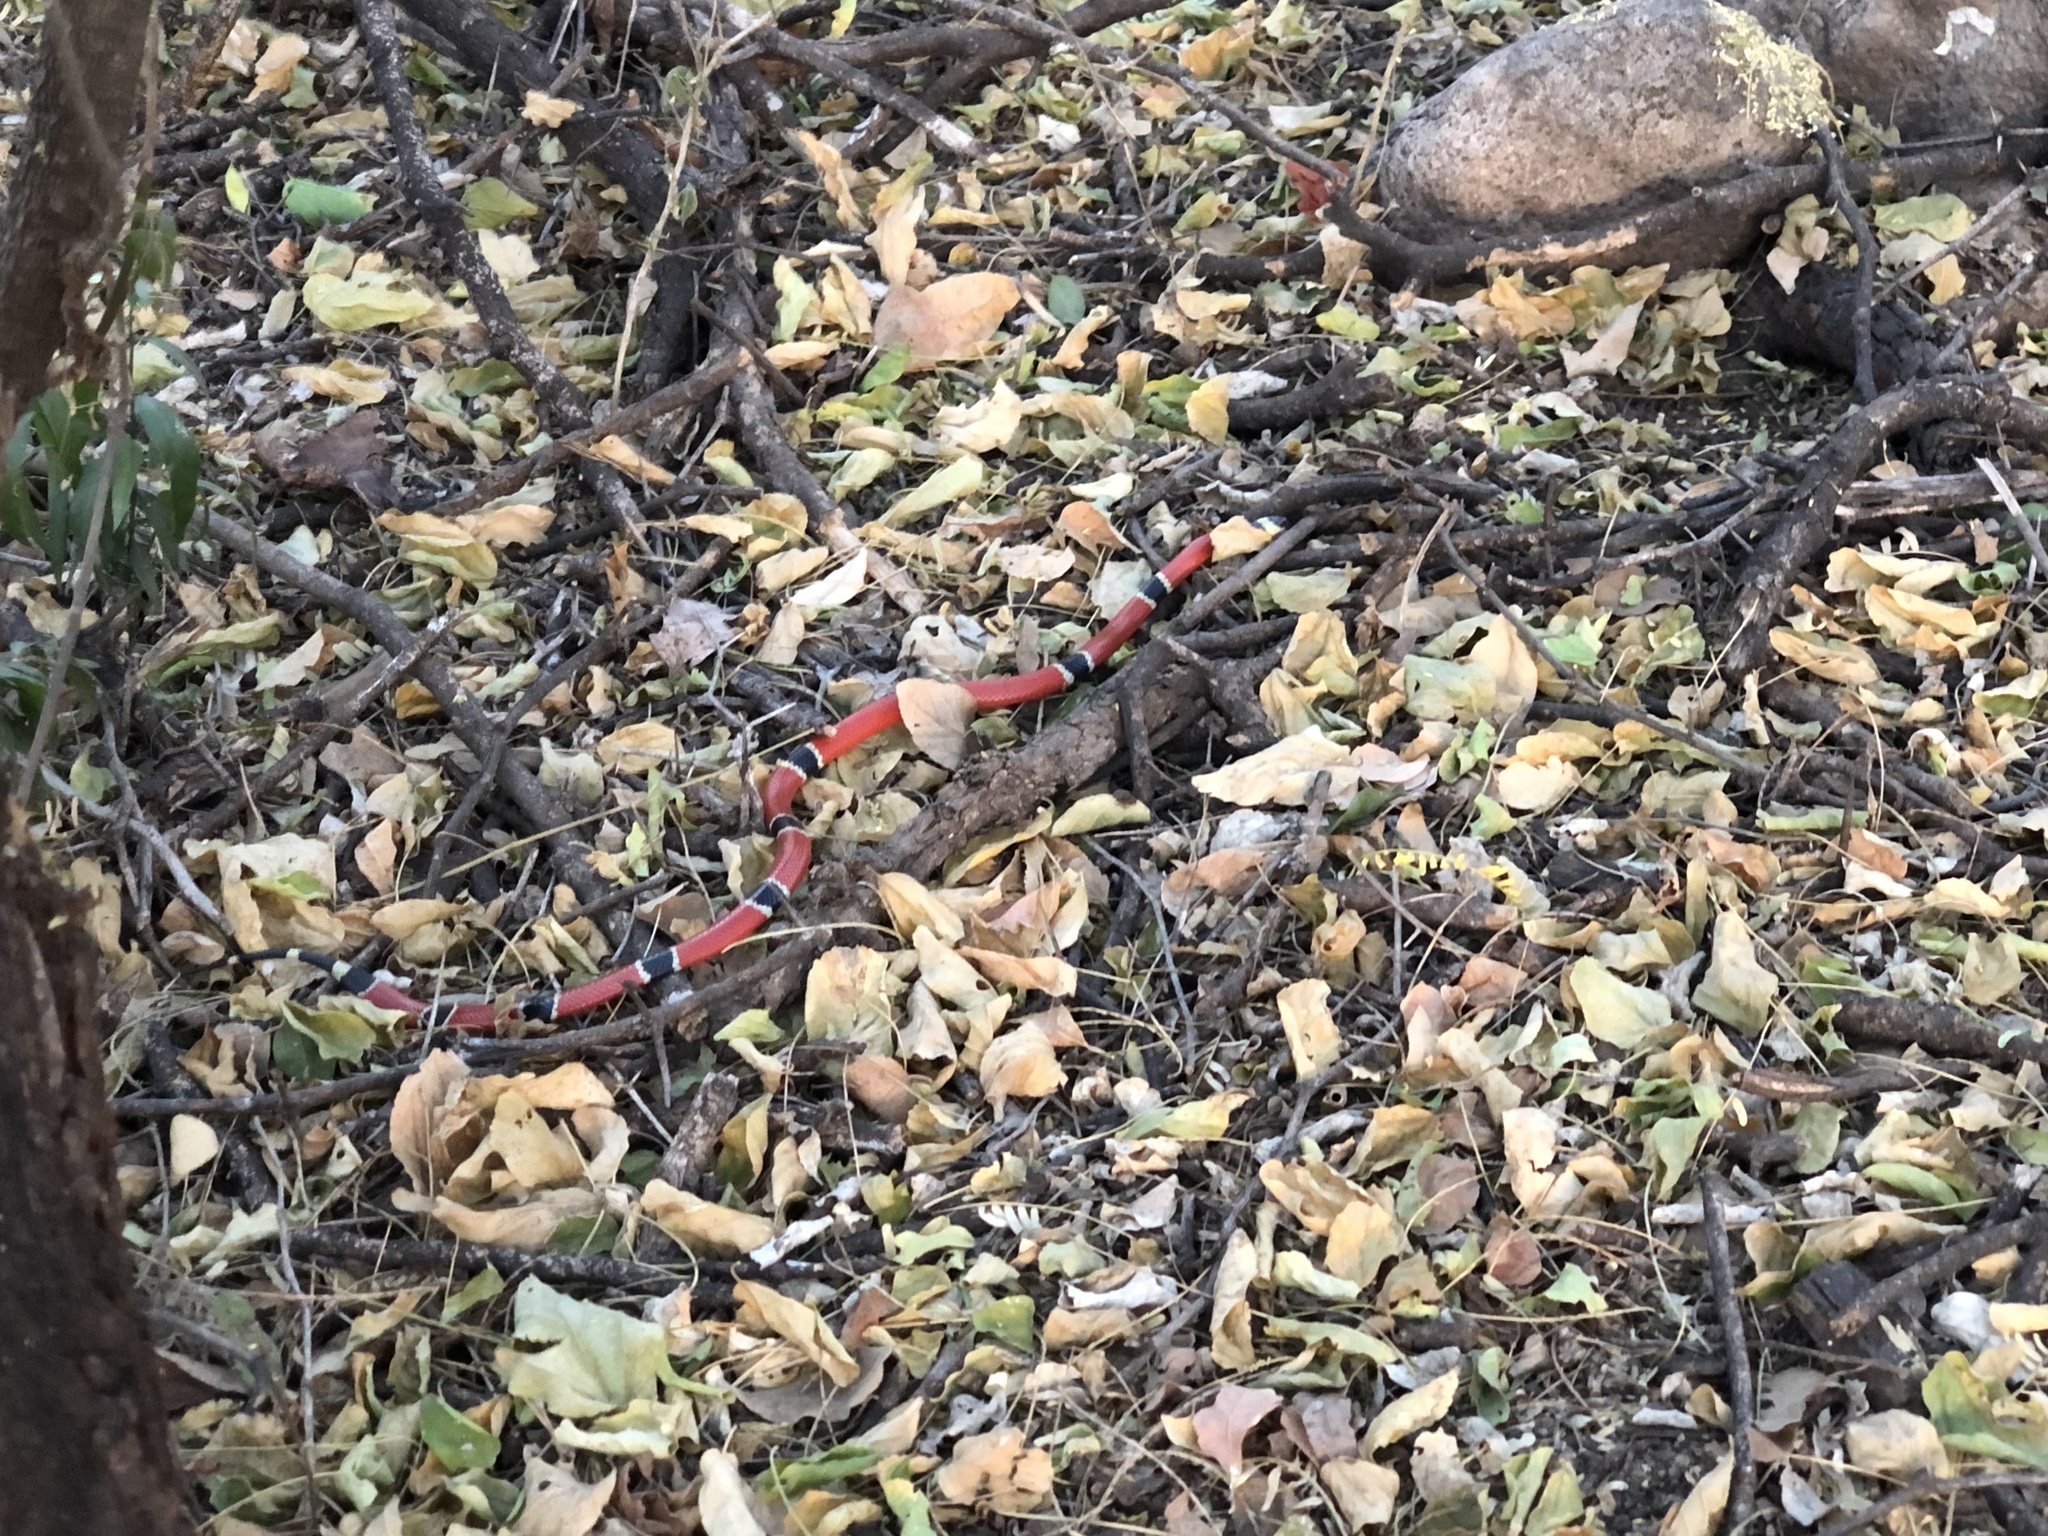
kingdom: Animalia
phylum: Chordata
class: Squamata
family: Elapidae
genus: Micrurus
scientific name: Micrurus distans
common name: Clear-banded coral snake
